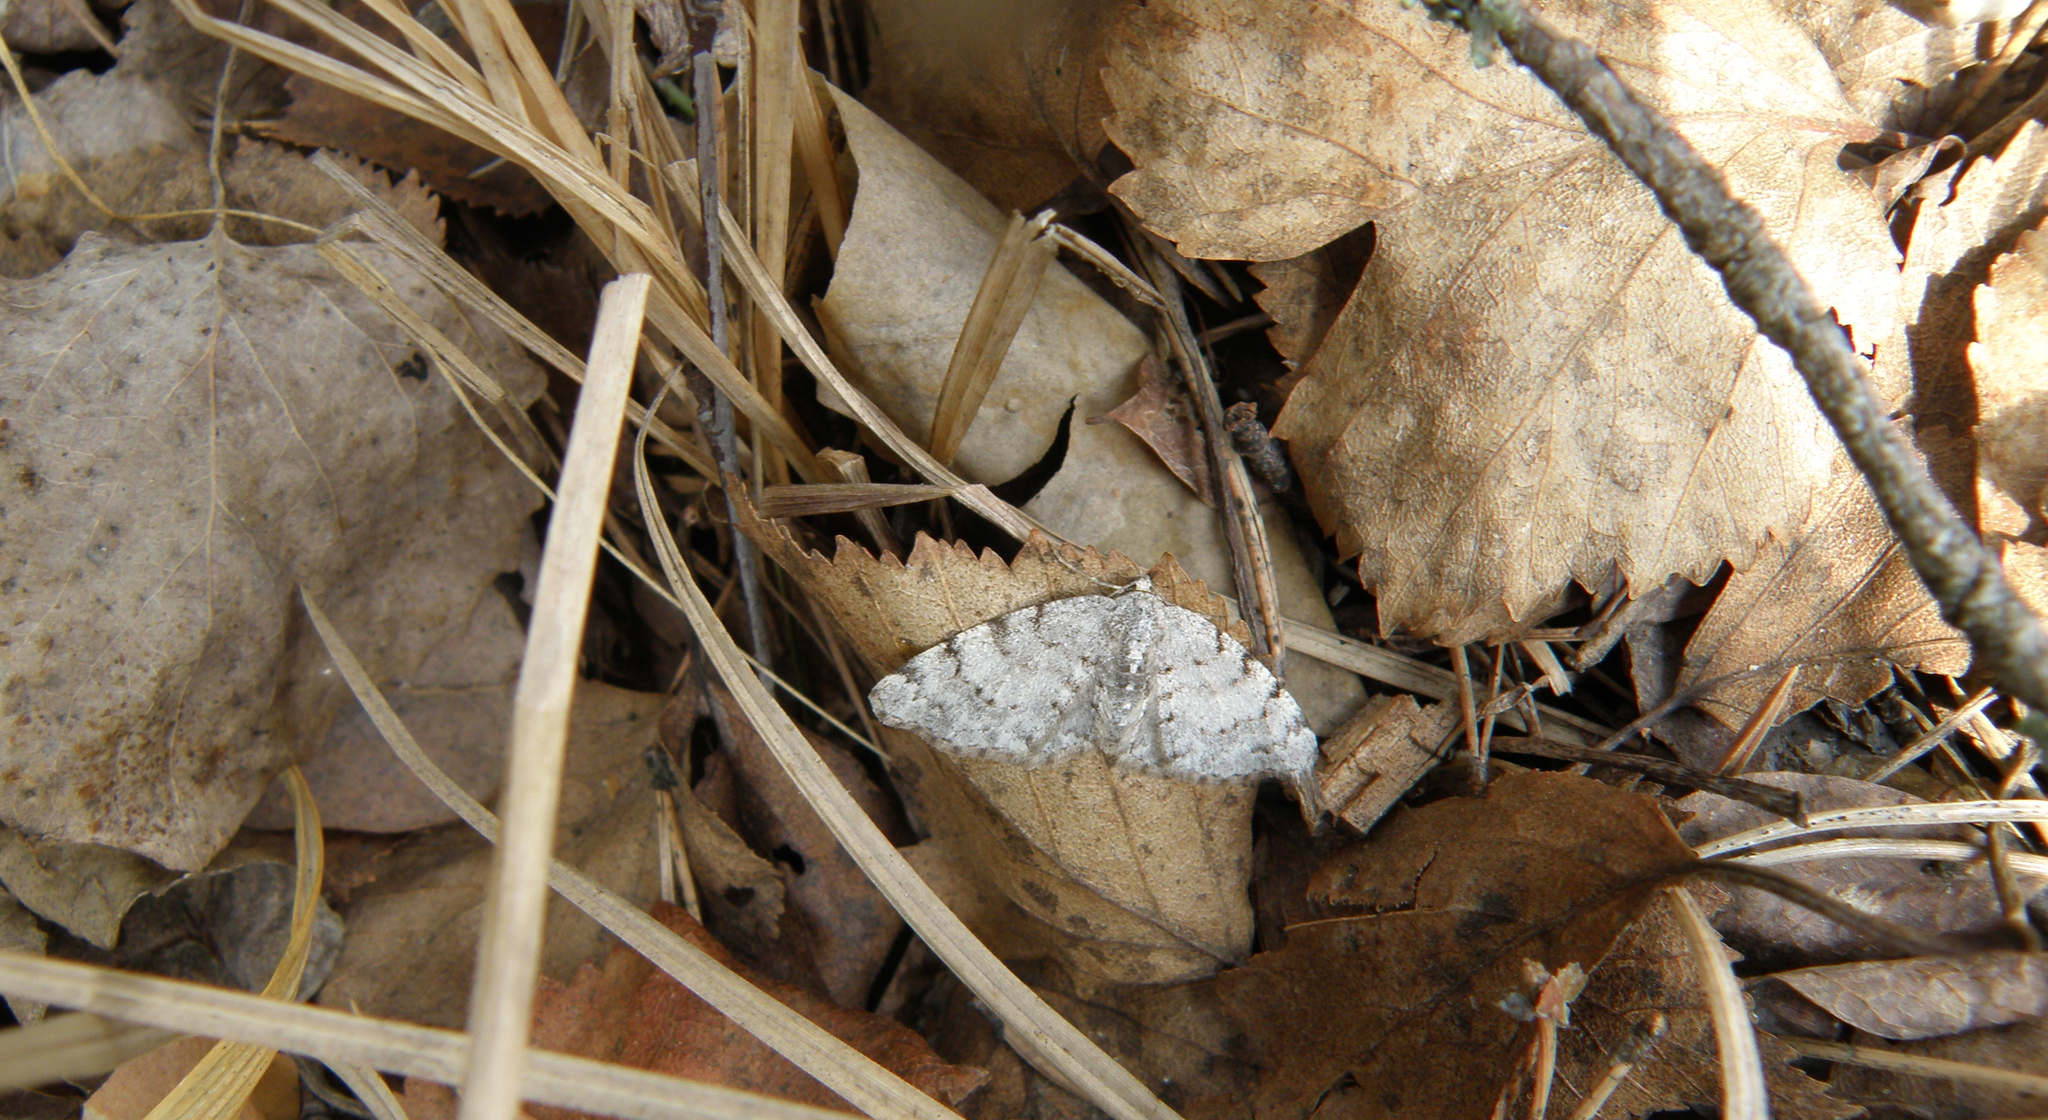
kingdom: Animalia
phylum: Arthropoda
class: Insecta
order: Lepidoptera
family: Geometridae
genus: Aethalura
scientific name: Aethalura punctulata
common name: Grey birch
